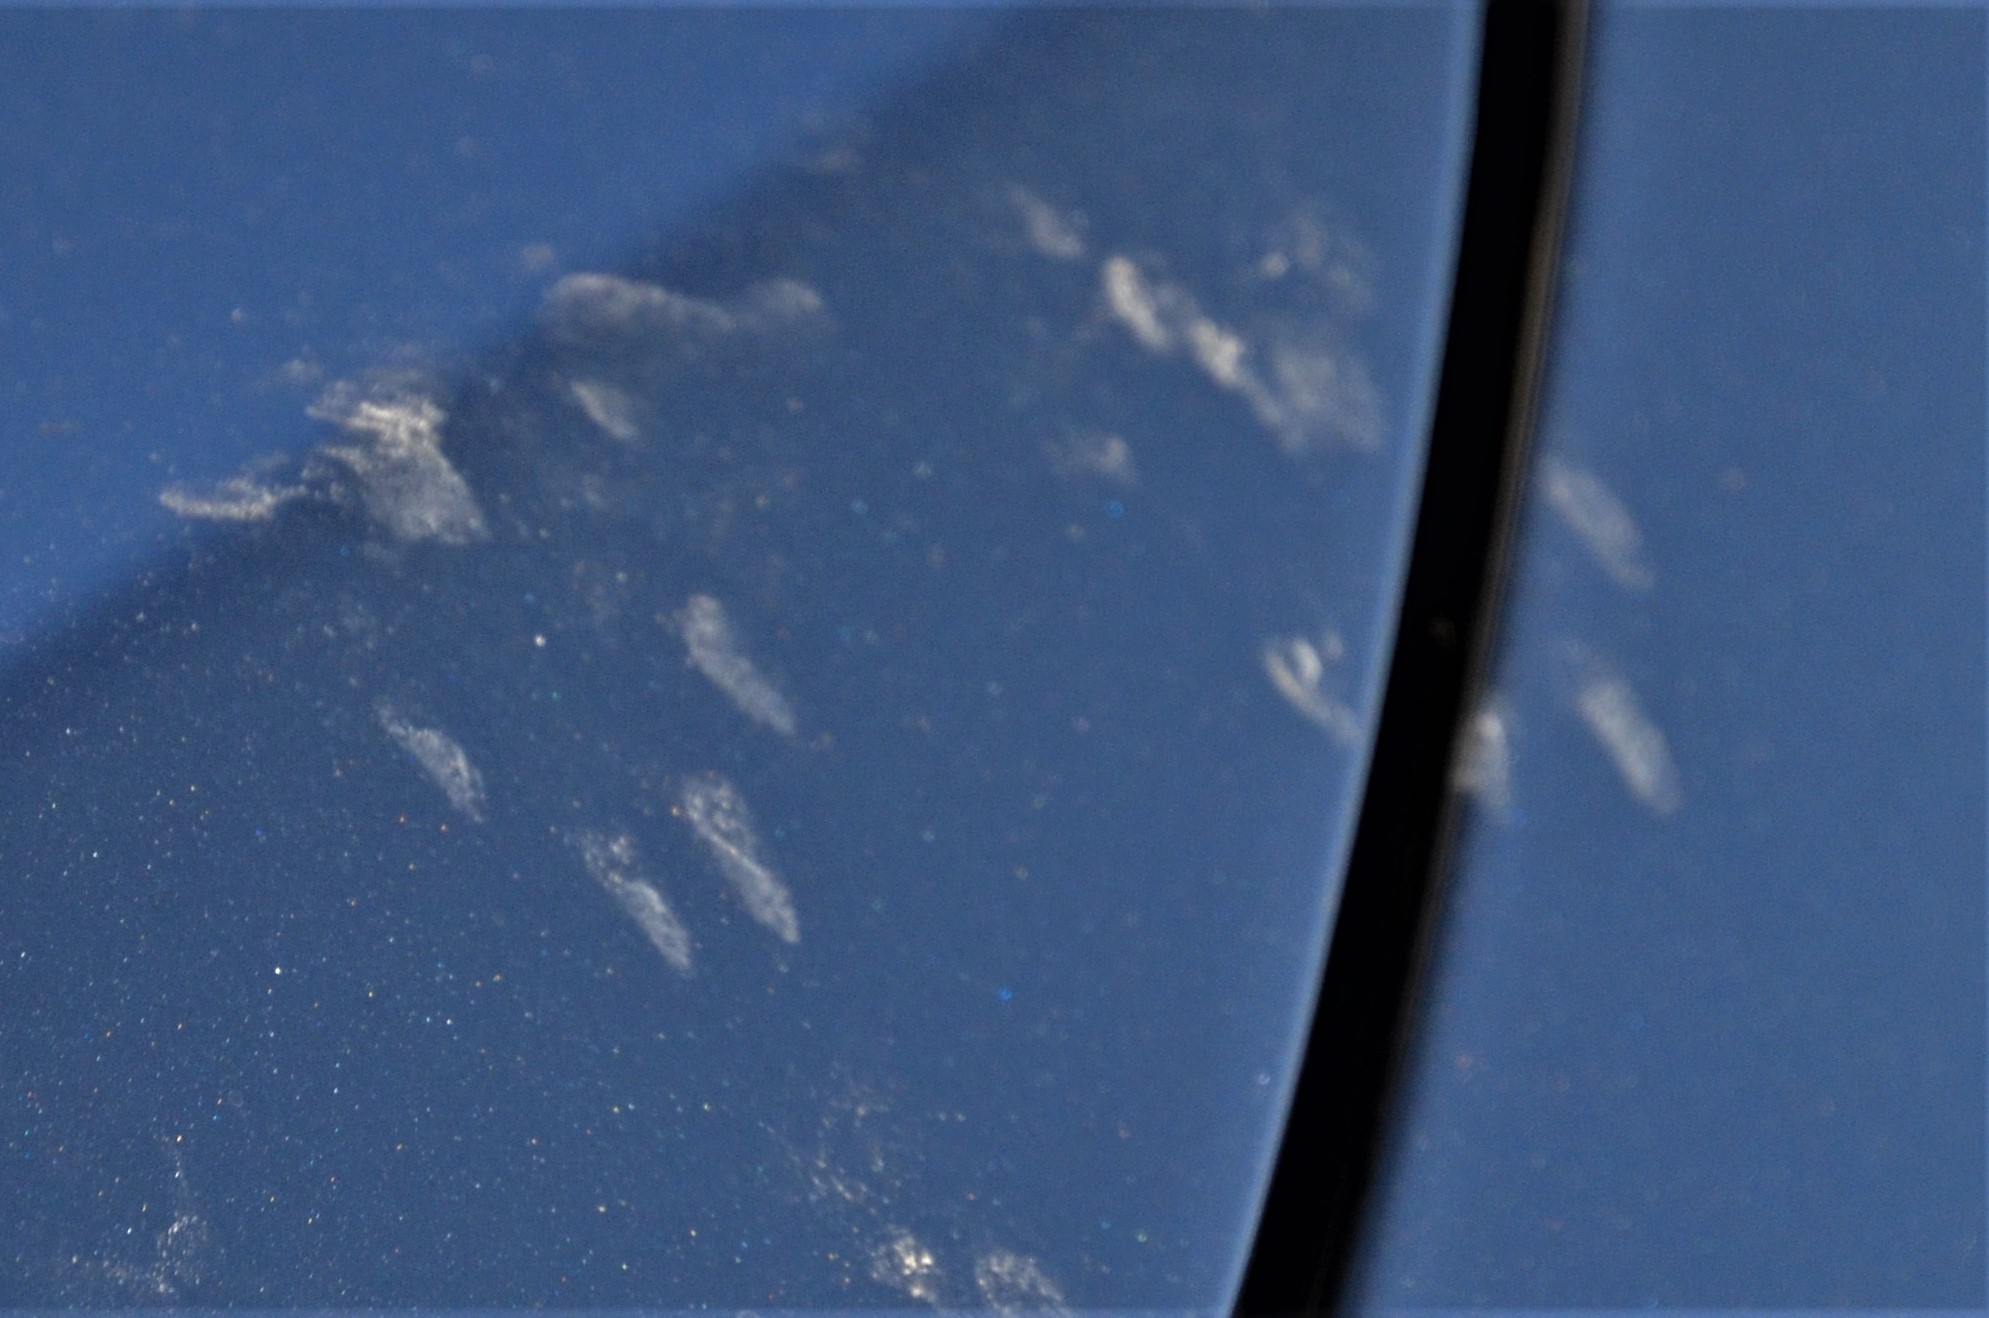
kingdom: Animalia
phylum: Chordata
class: Mammalia
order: Carnivora
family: Mustelidae
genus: Martes
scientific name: Martes foina
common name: Beech marten
